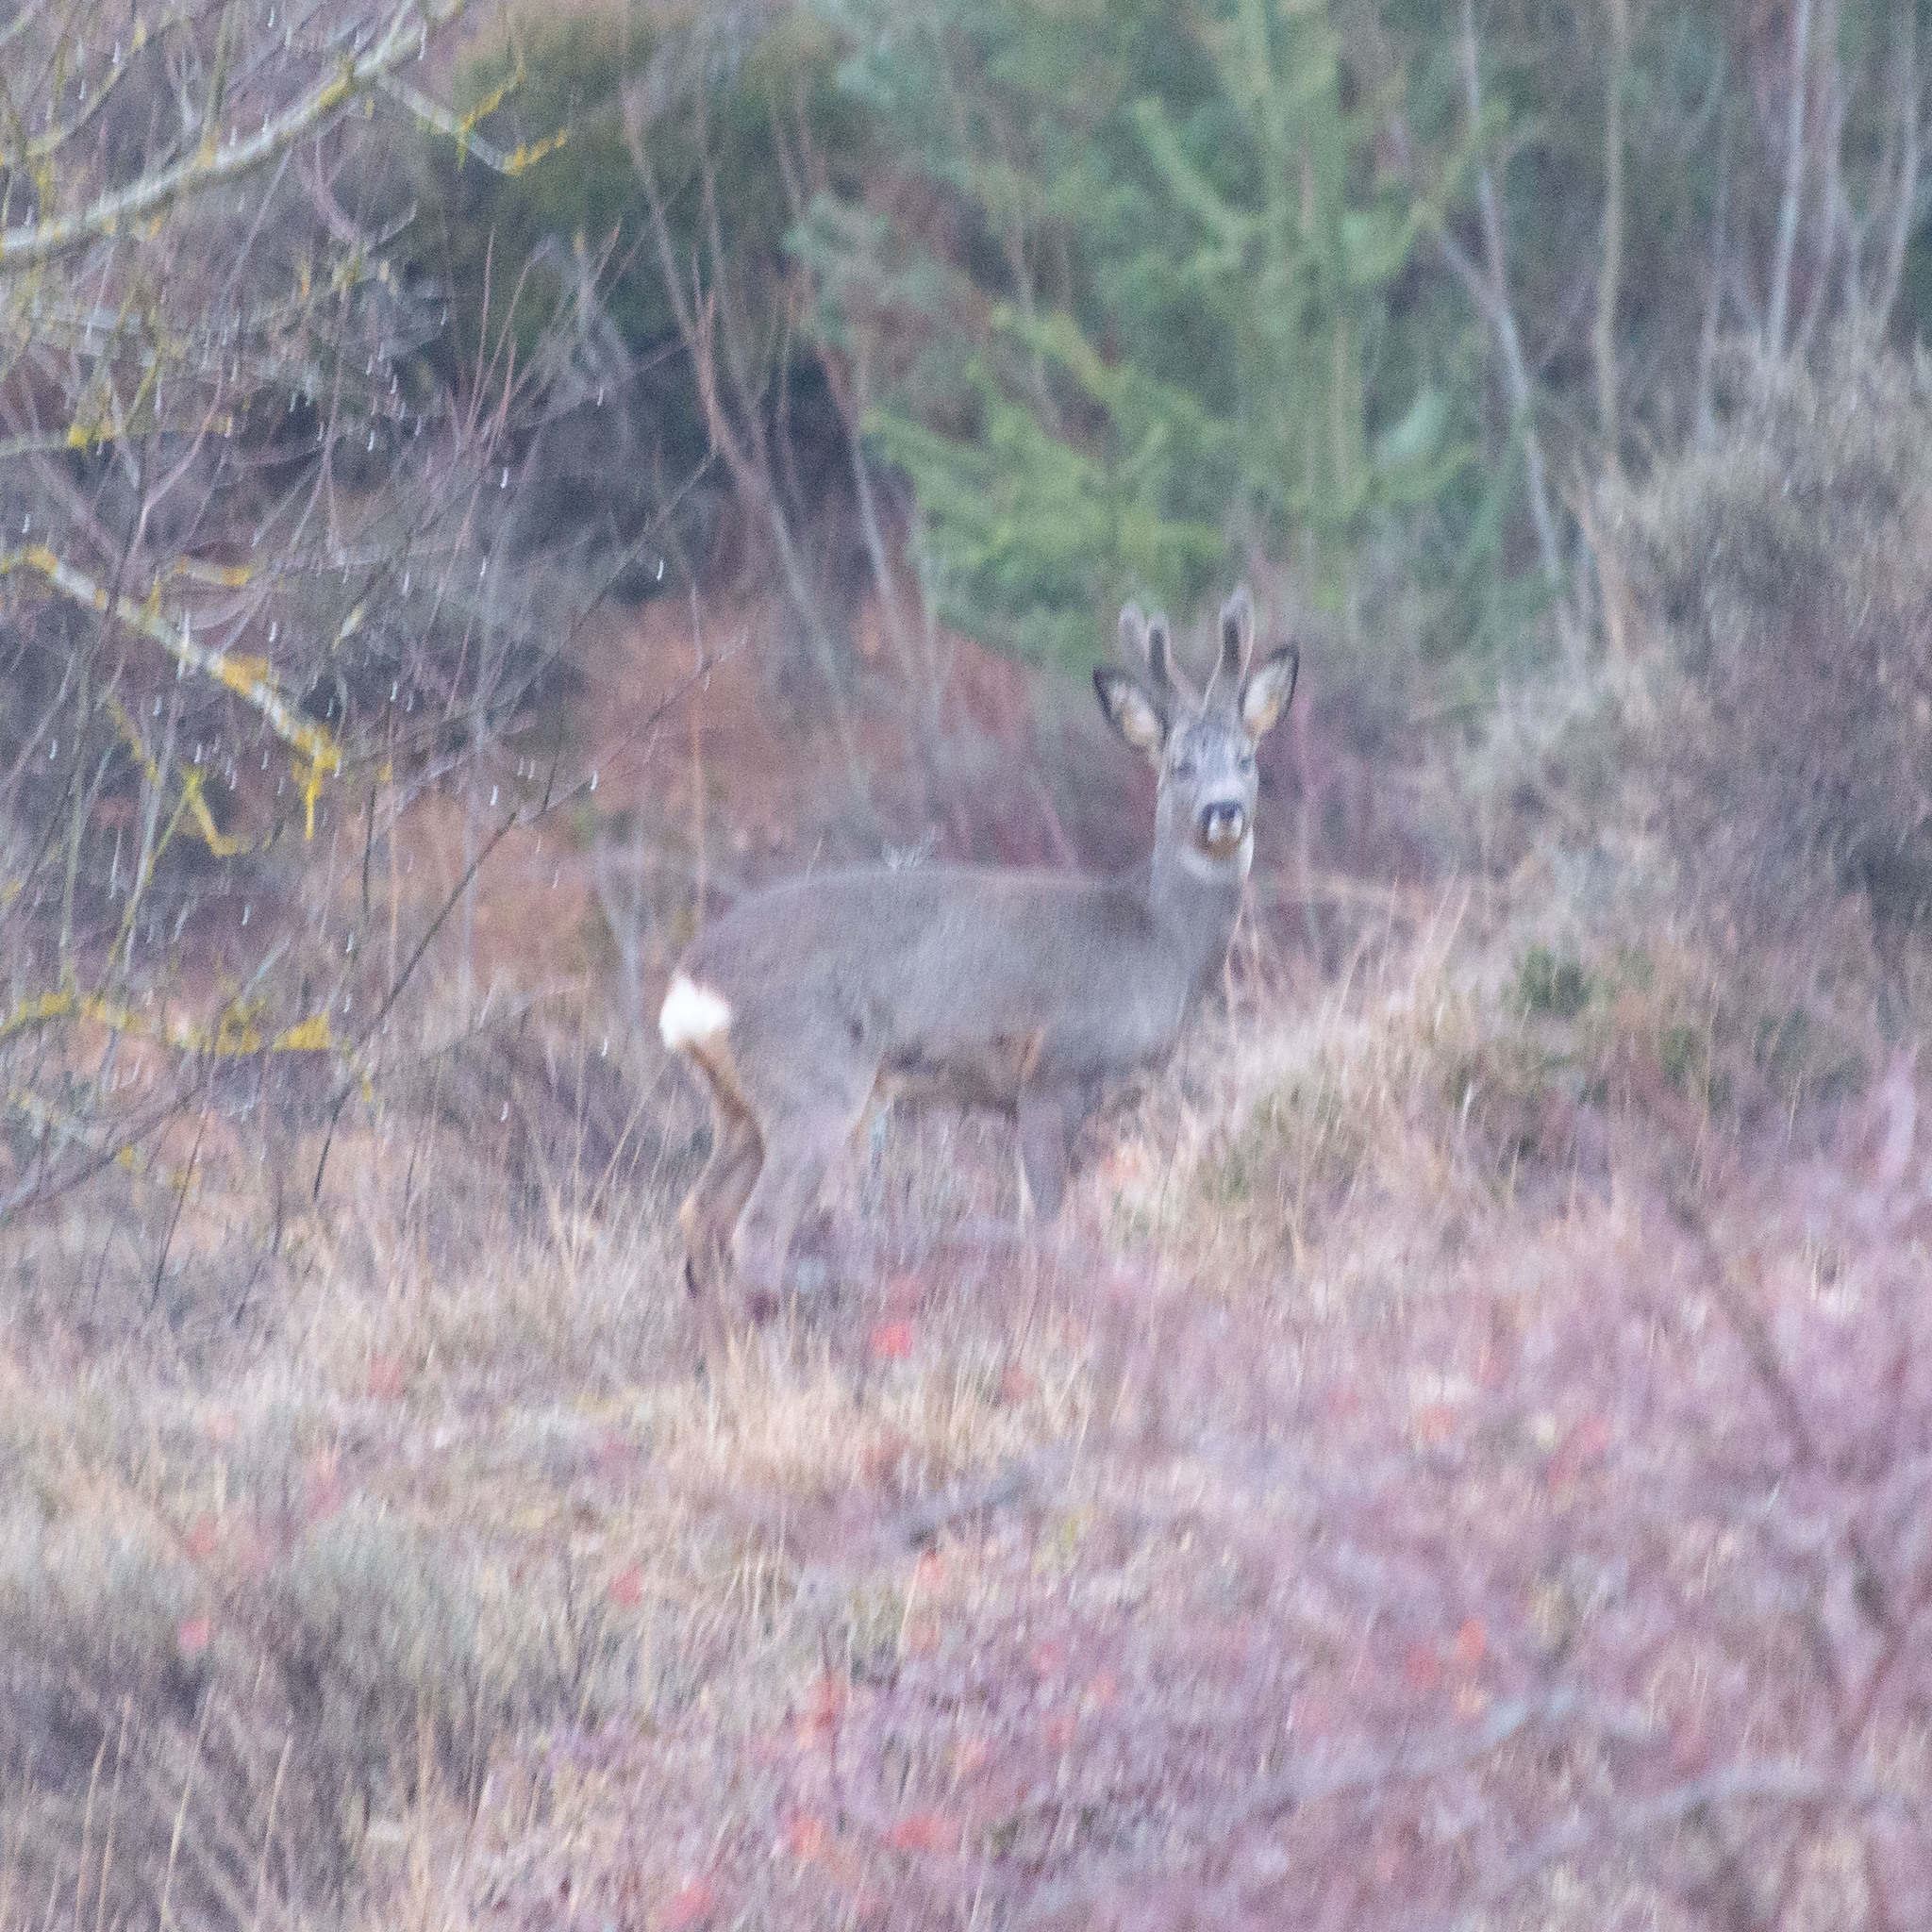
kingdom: Animalia
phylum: Chordata
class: Mammalia
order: Artiodactyla
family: Cervidae
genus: Capreolus
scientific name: Capreolus capreolus
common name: Western roe deer
